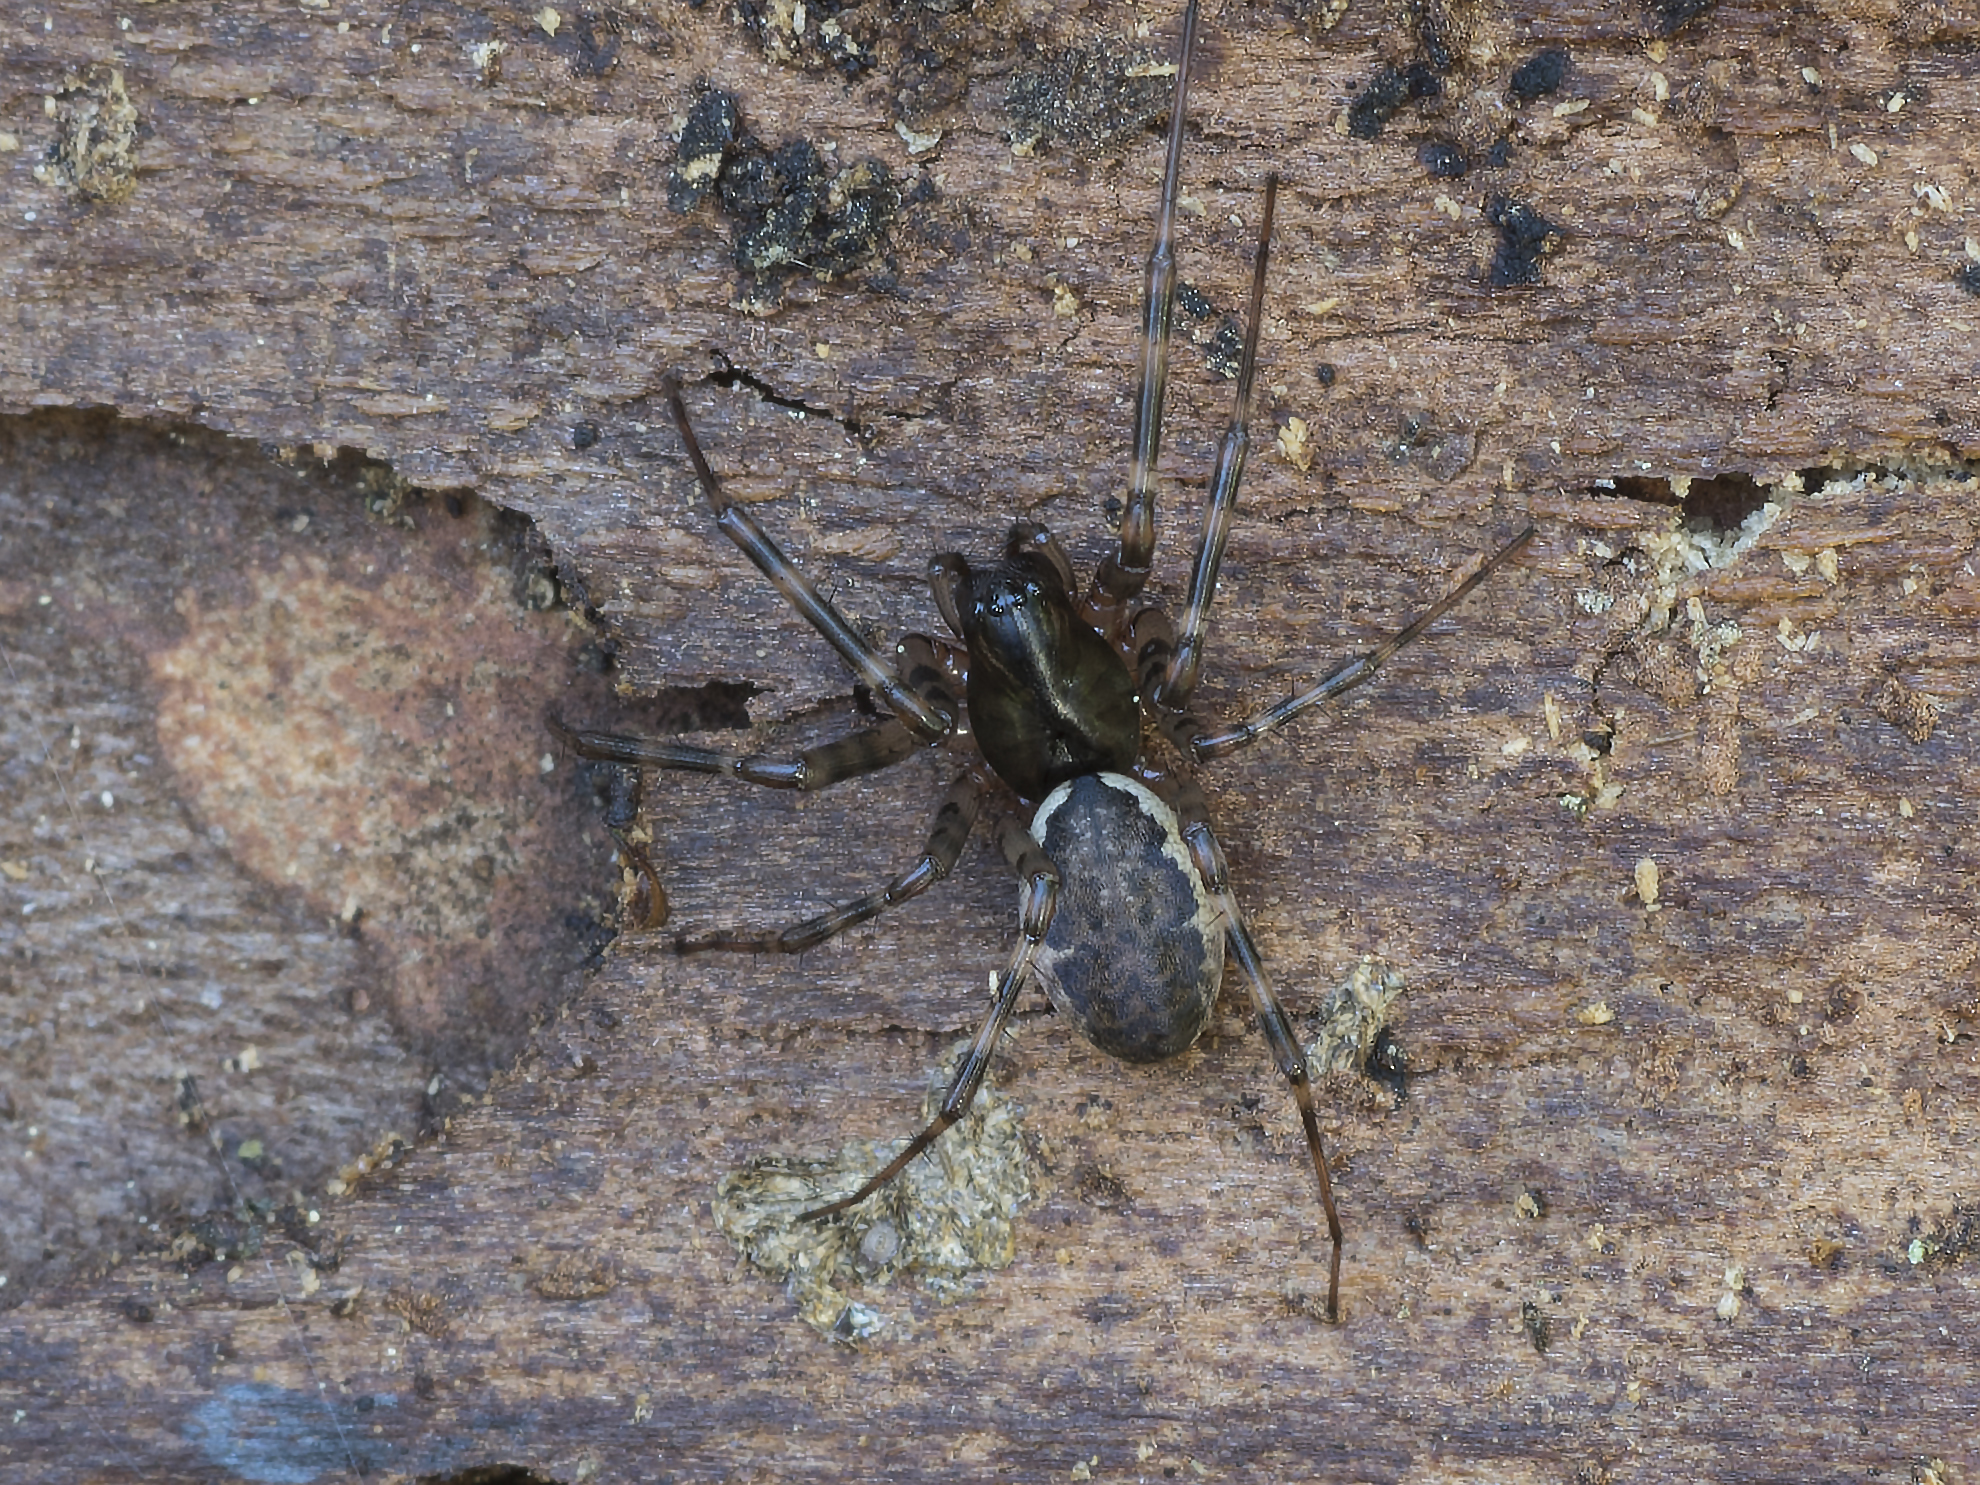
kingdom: Animalia
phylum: Arthropoda
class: Arachnida
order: Araneae
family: Linyphiidae
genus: Neriene
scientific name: Neriene montana
